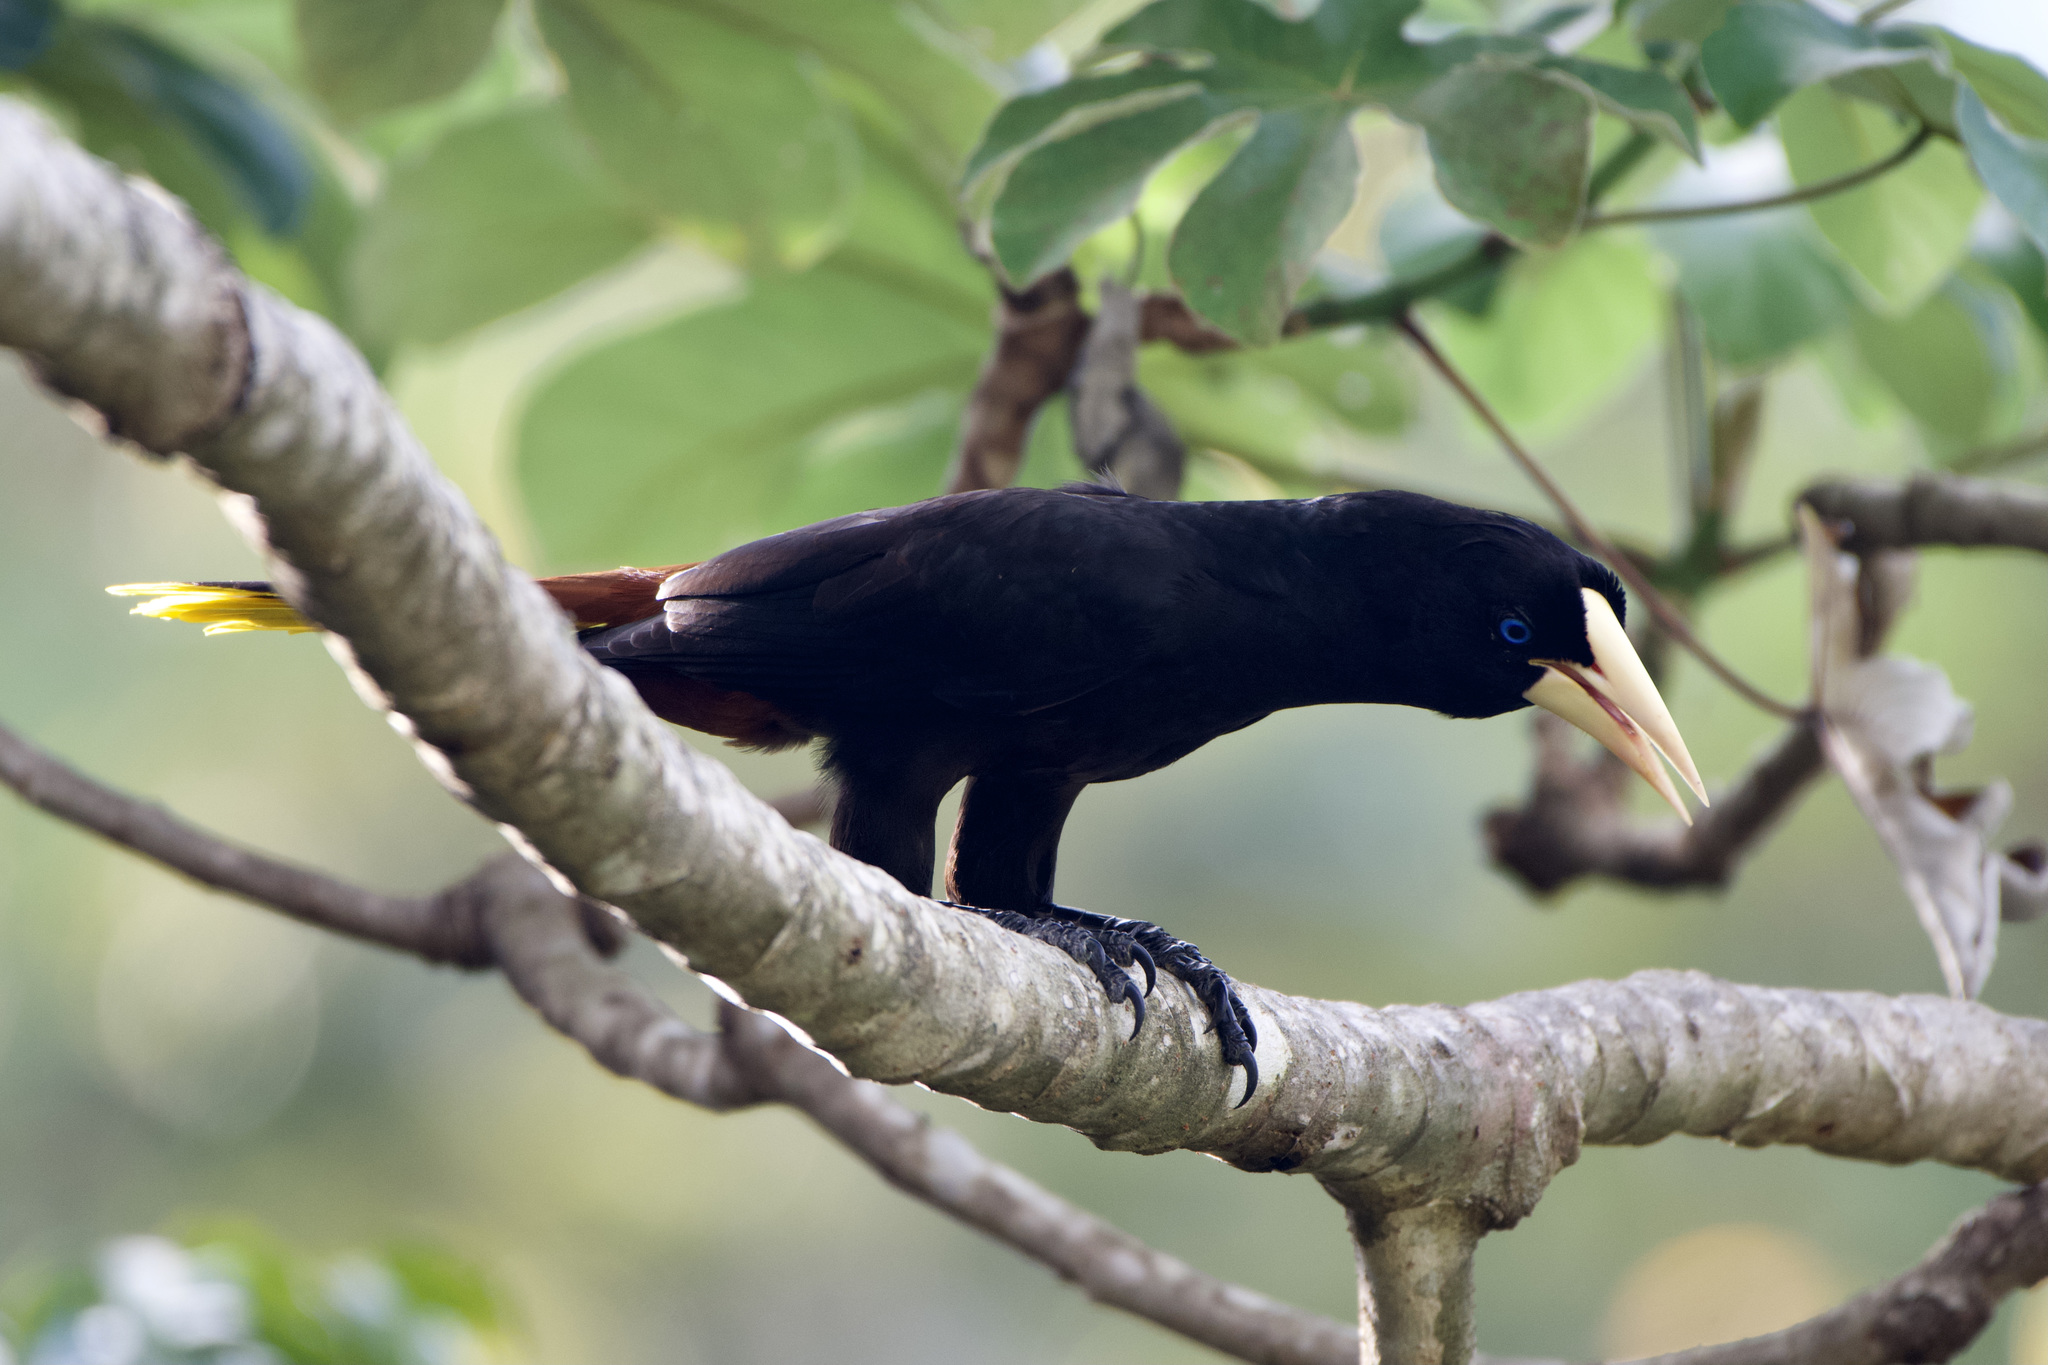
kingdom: Animalia
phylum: Chordata
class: Aves
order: Passeriformes
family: Icteridae
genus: Psarocolius
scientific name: Psarocolius decumanus
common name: Crested oropendola
